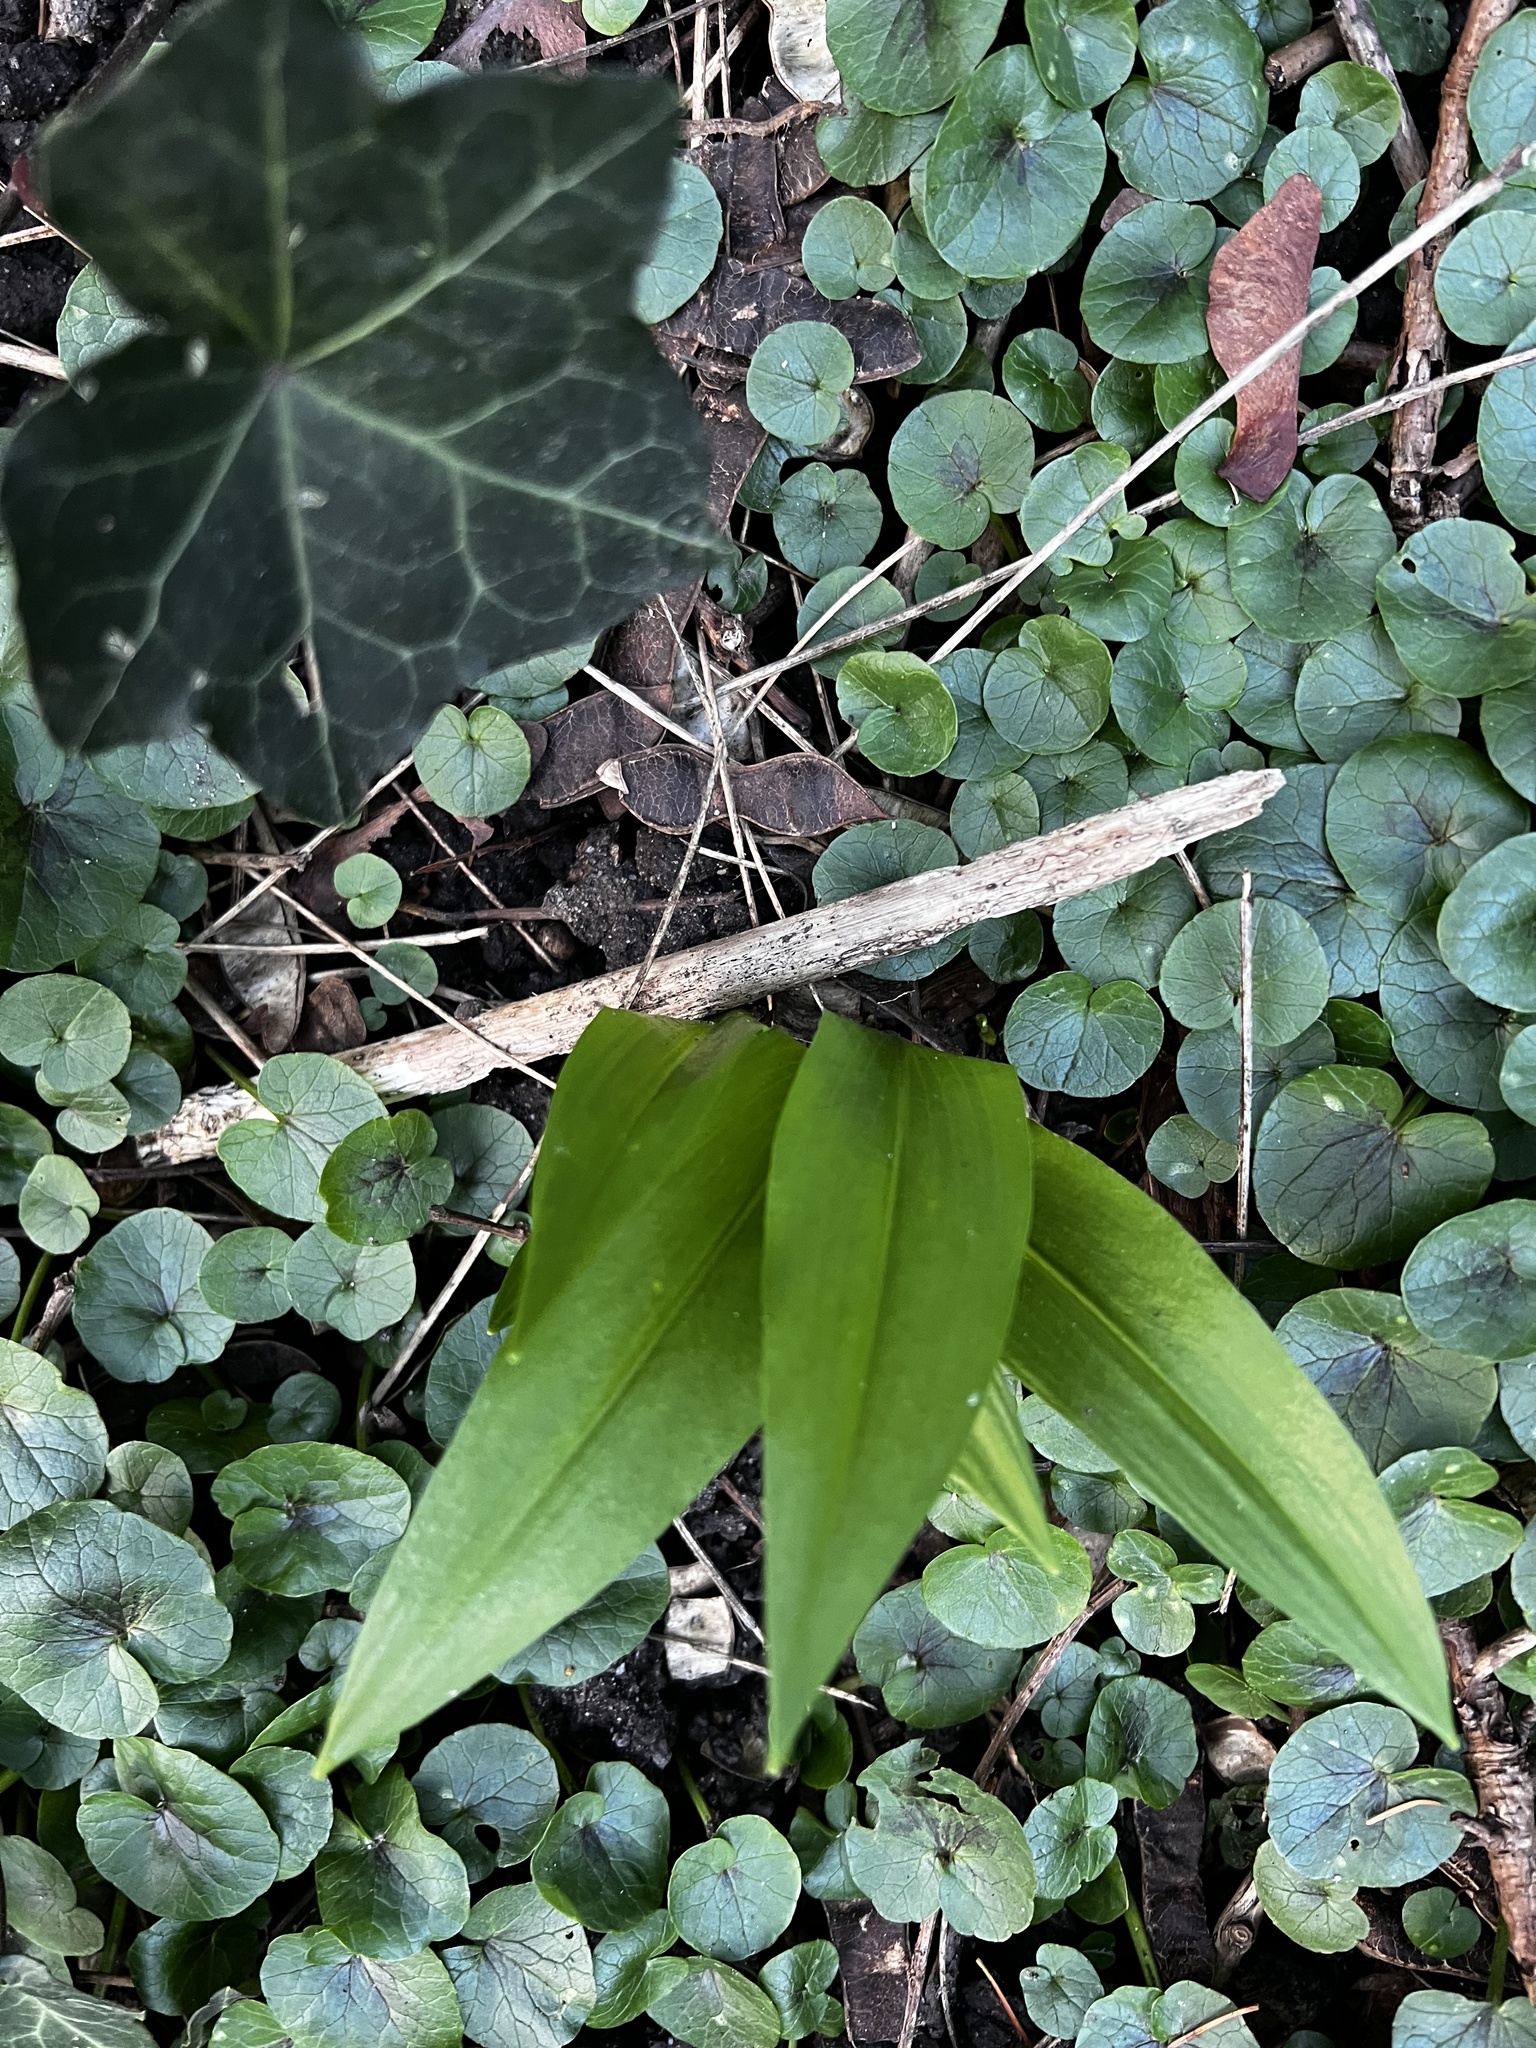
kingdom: Plantae
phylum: Tracheophyta
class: Liliopsida
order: Asparagales
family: Amaryllidaceae
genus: Allium
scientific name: Allium ursinum
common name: Ramsons
